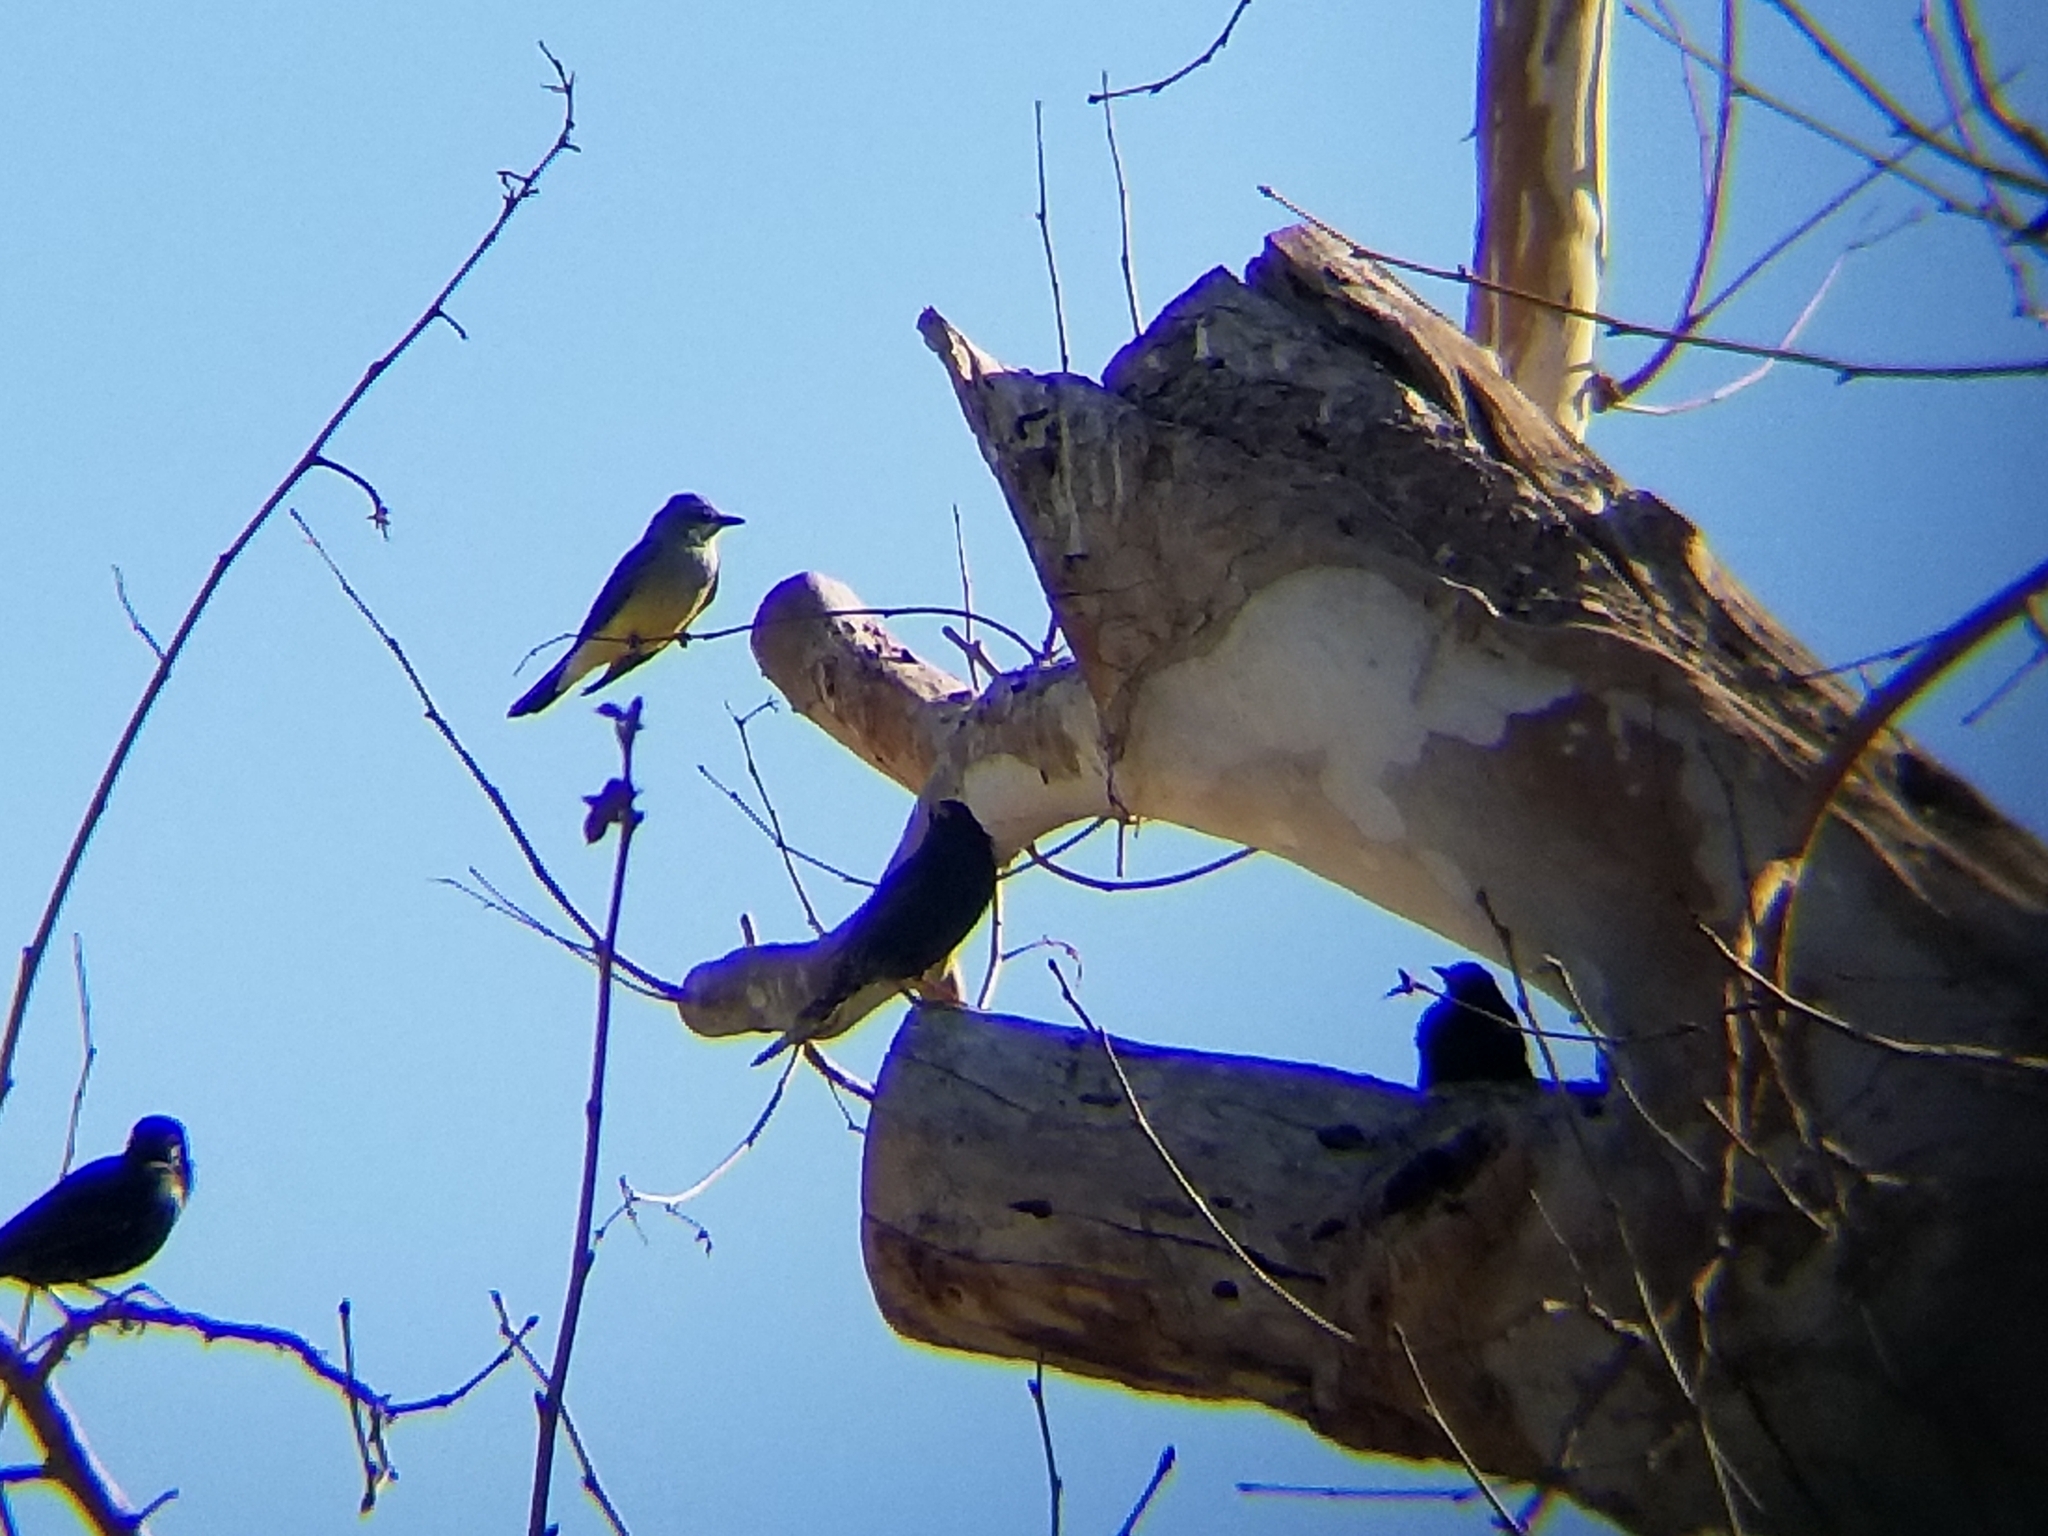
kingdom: Animalia
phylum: Chordata
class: Aves
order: Passeriformes
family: Tyrannidae
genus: Tyrannus
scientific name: Tyrannus verticalis
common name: Western kingbird
